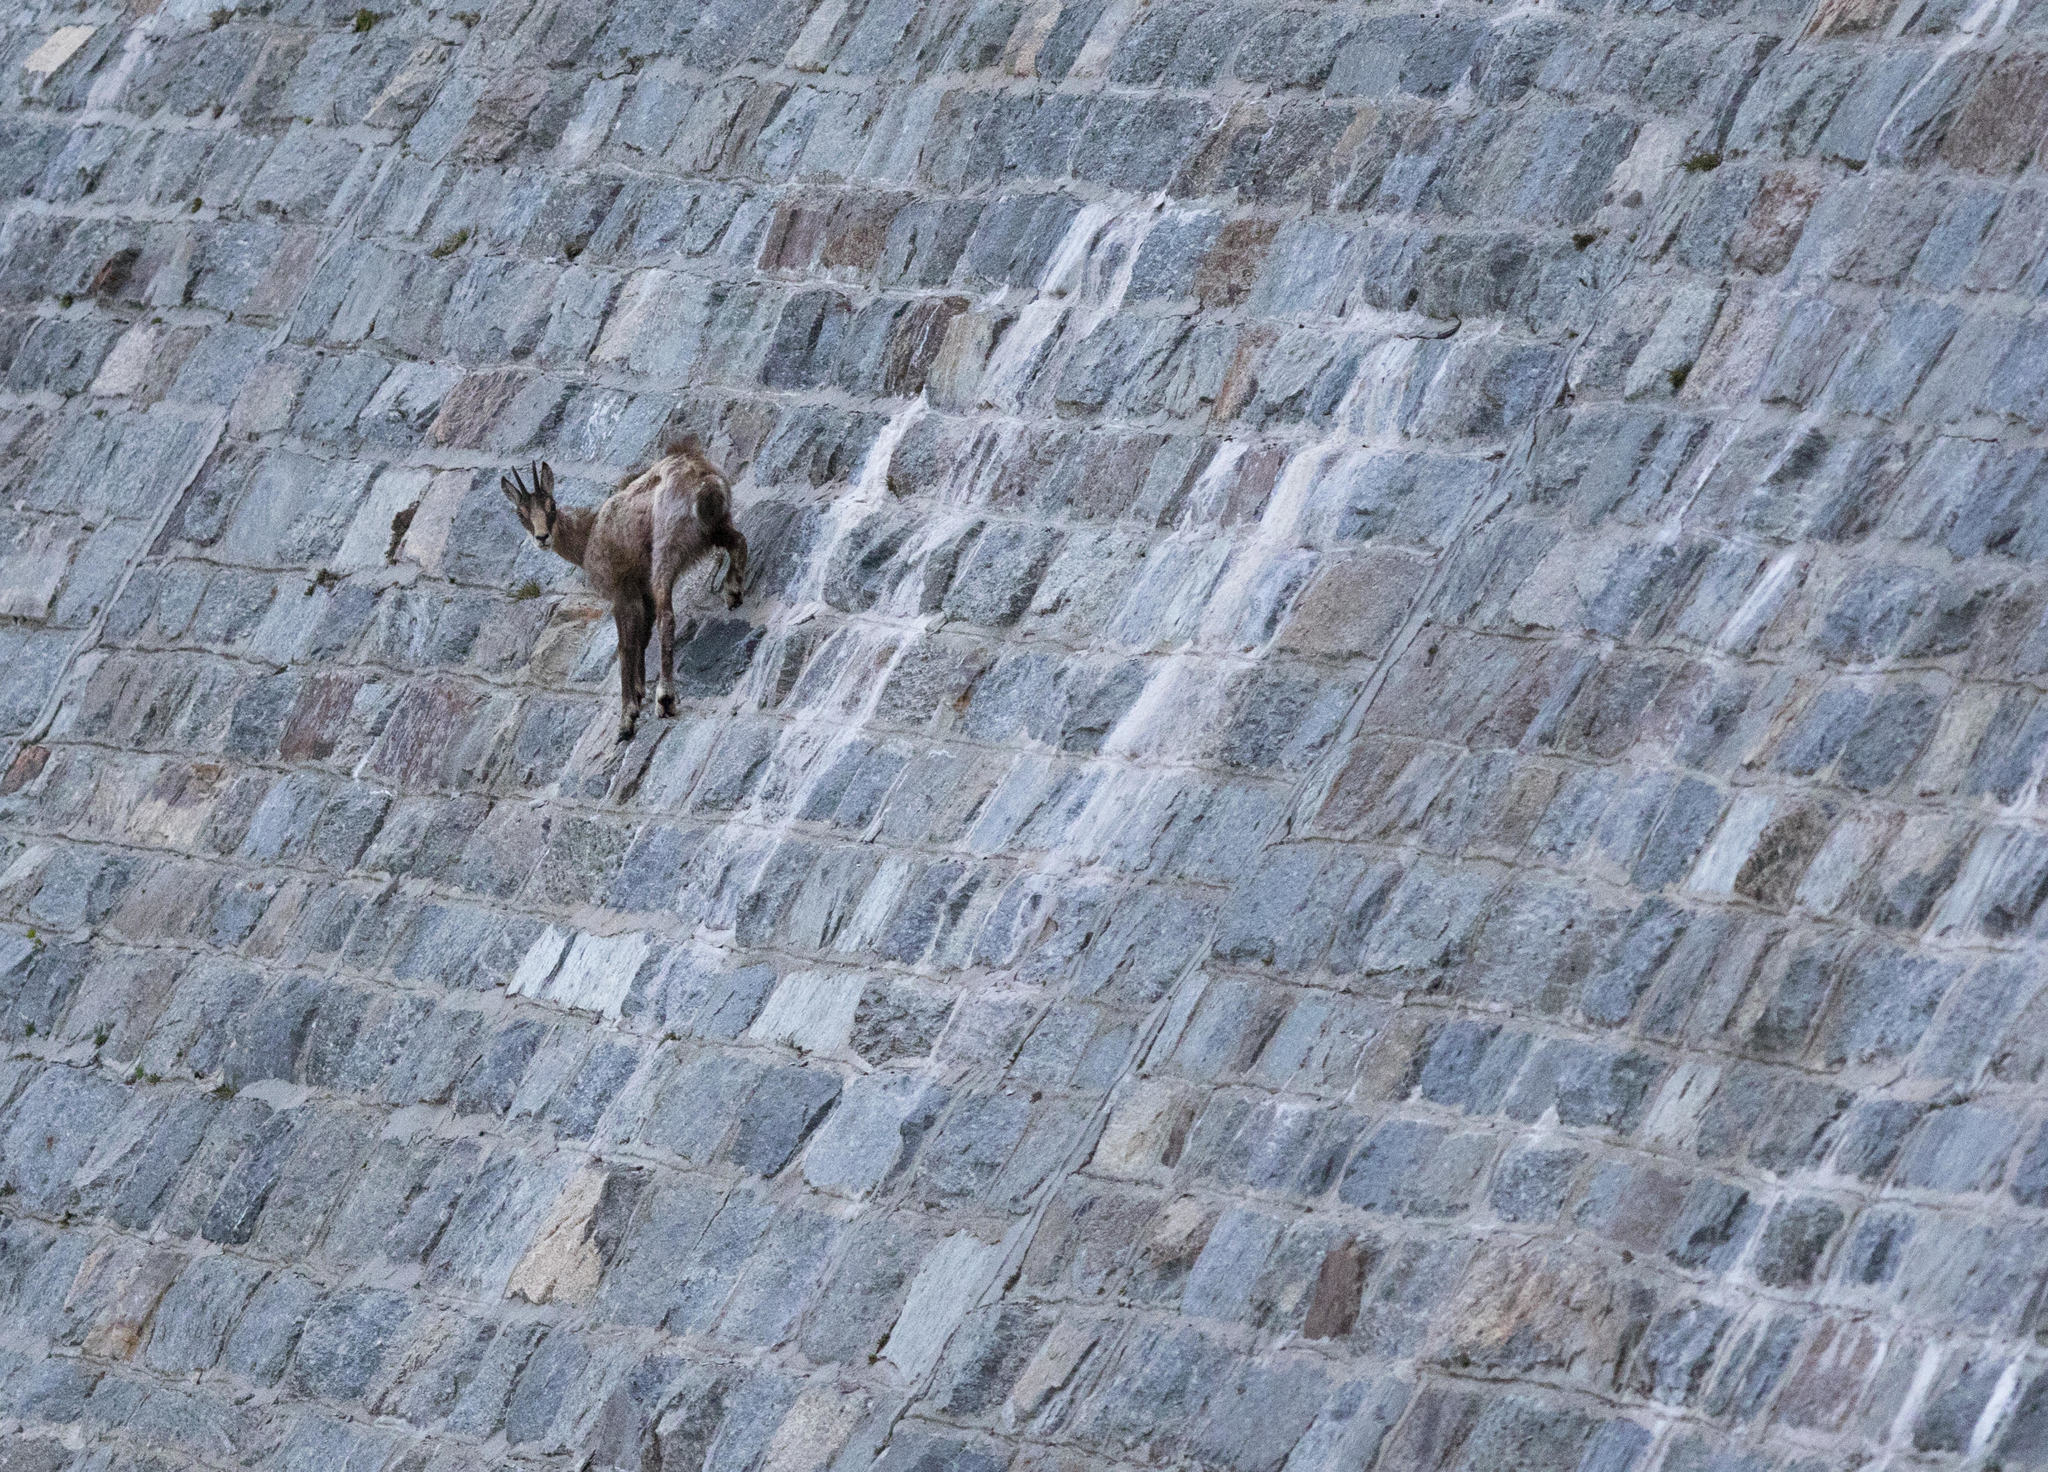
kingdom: Animalia
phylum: Chordata
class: Mammalia
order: Artiodactyla
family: Bovidae
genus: Rupicapra
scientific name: Rupicapra rupicapra
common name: Chamois
